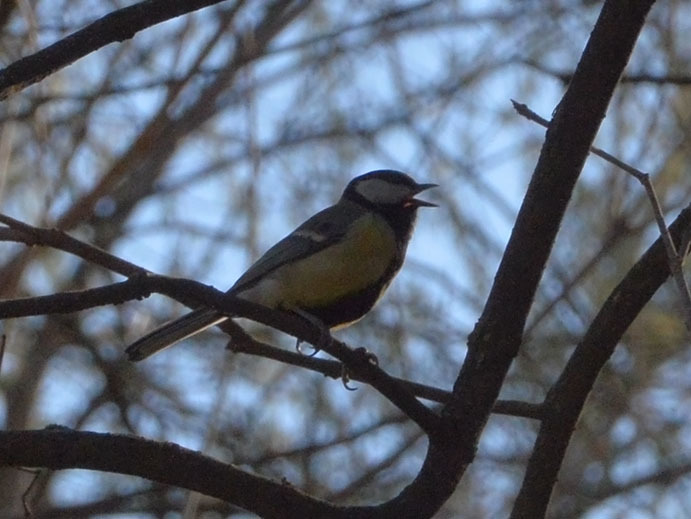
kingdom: Animalia
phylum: Chordata
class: Aves
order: Passeriformes
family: Paridae
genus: Parus
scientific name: Parus major
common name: Great tit
